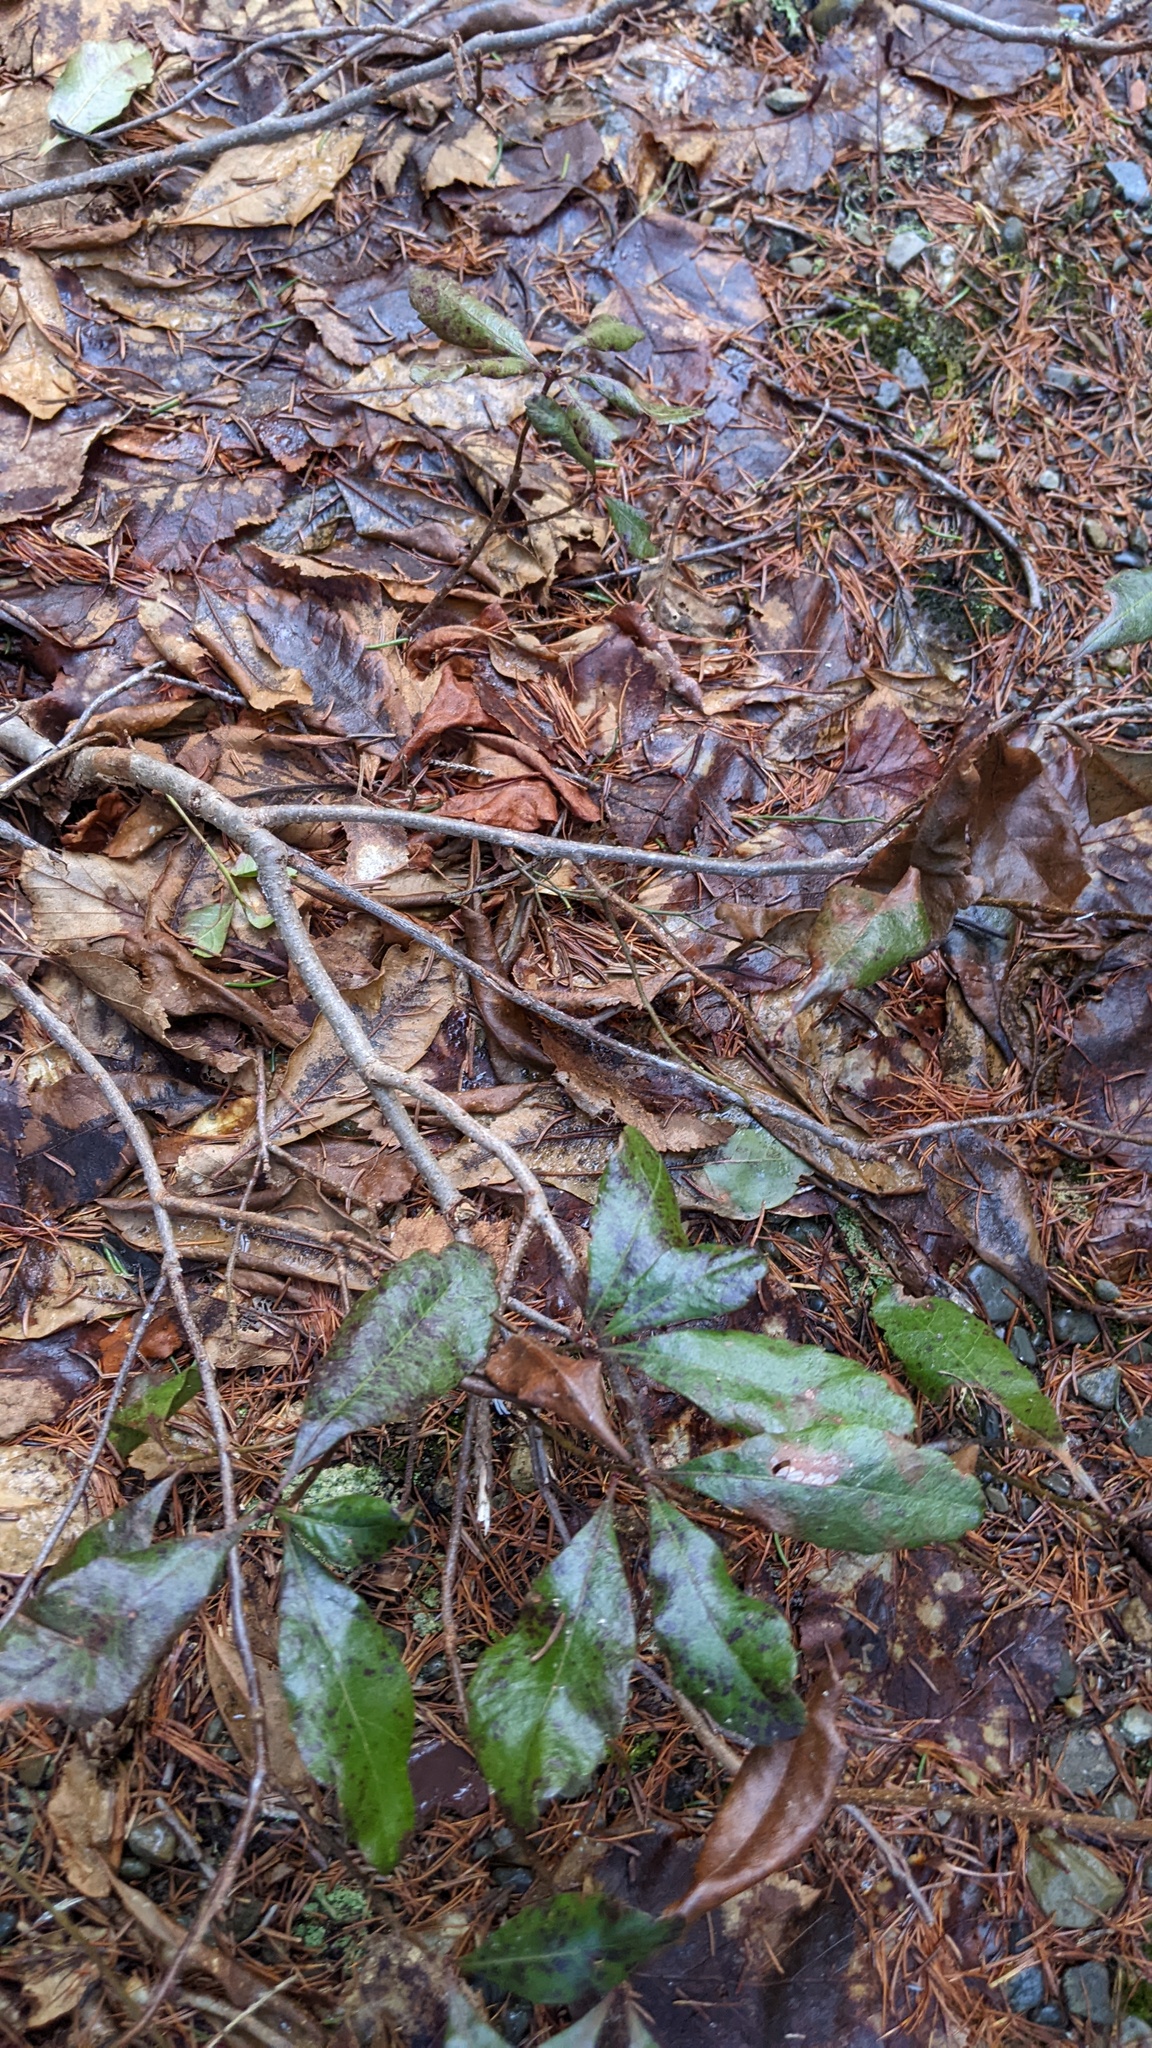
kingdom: Plantae
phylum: Tracheophyta
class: Magnoliopsida
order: Fagales
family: Myricaceae
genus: Morella
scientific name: Morella pensylvanica
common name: Northern bayberry
